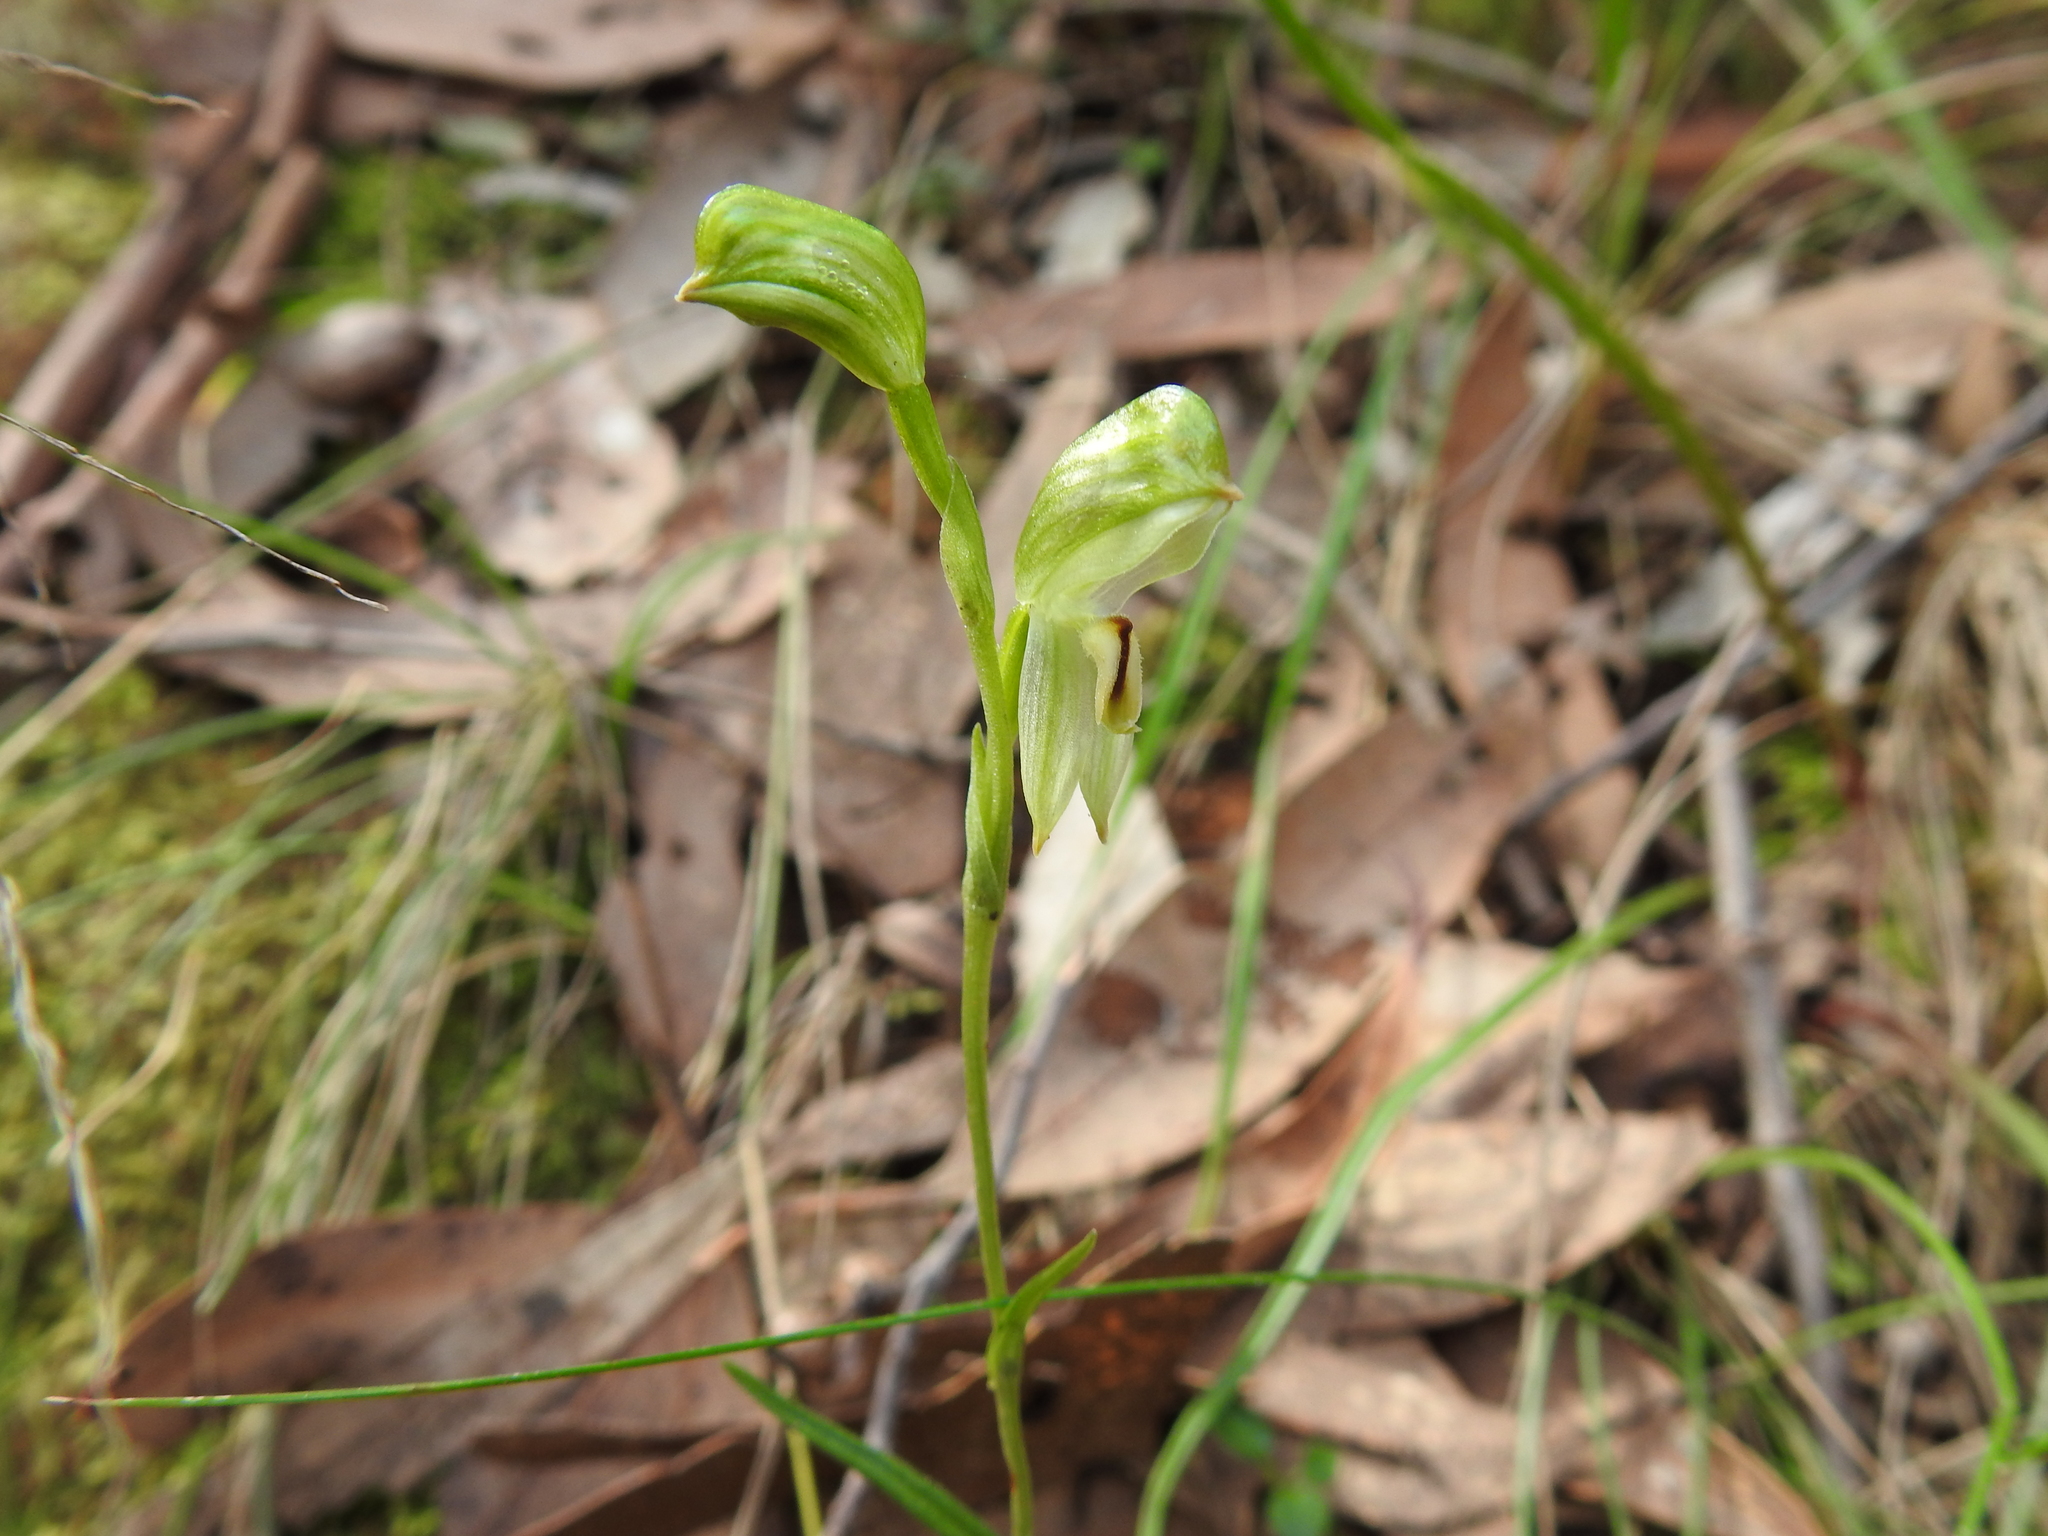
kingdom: Plantae
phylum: Tracheophyta
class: Liliopsida
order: Asparagales
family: Orchidaceae
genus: Pterostylis
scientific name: Pterostylis melagramma
